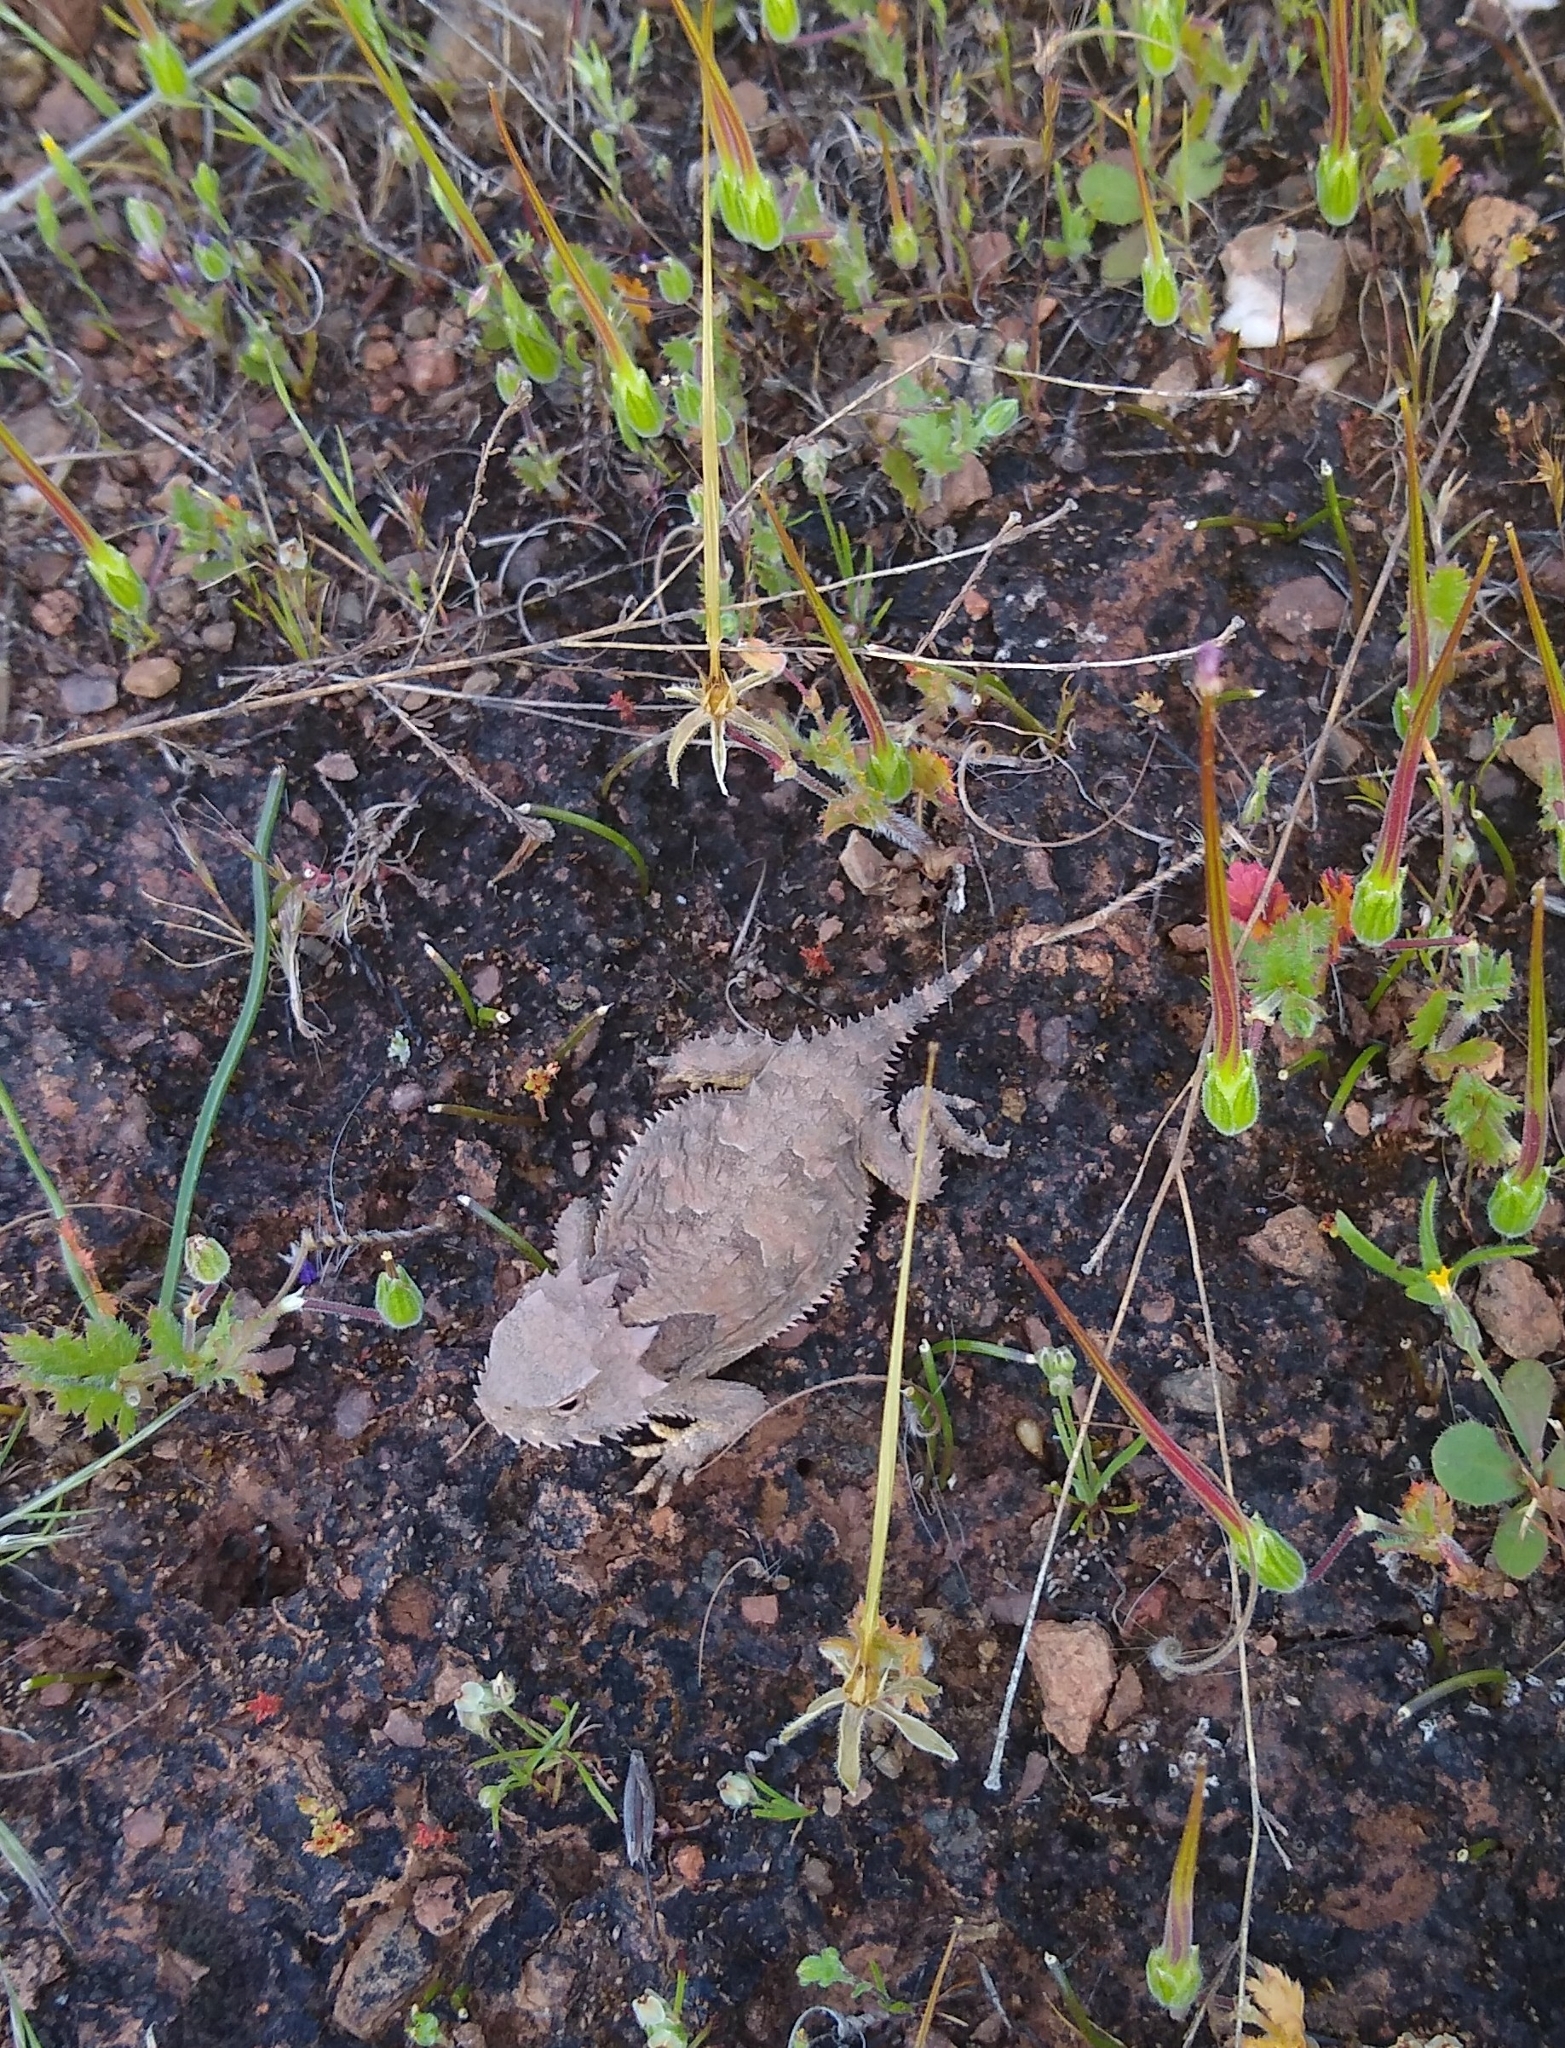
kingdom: Animalia
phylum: Chordata
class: Squamata
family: Phrynosomatidae
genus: Phrynosoma
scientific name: Phrynosoma blainvillii
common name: San diego horned lizard
